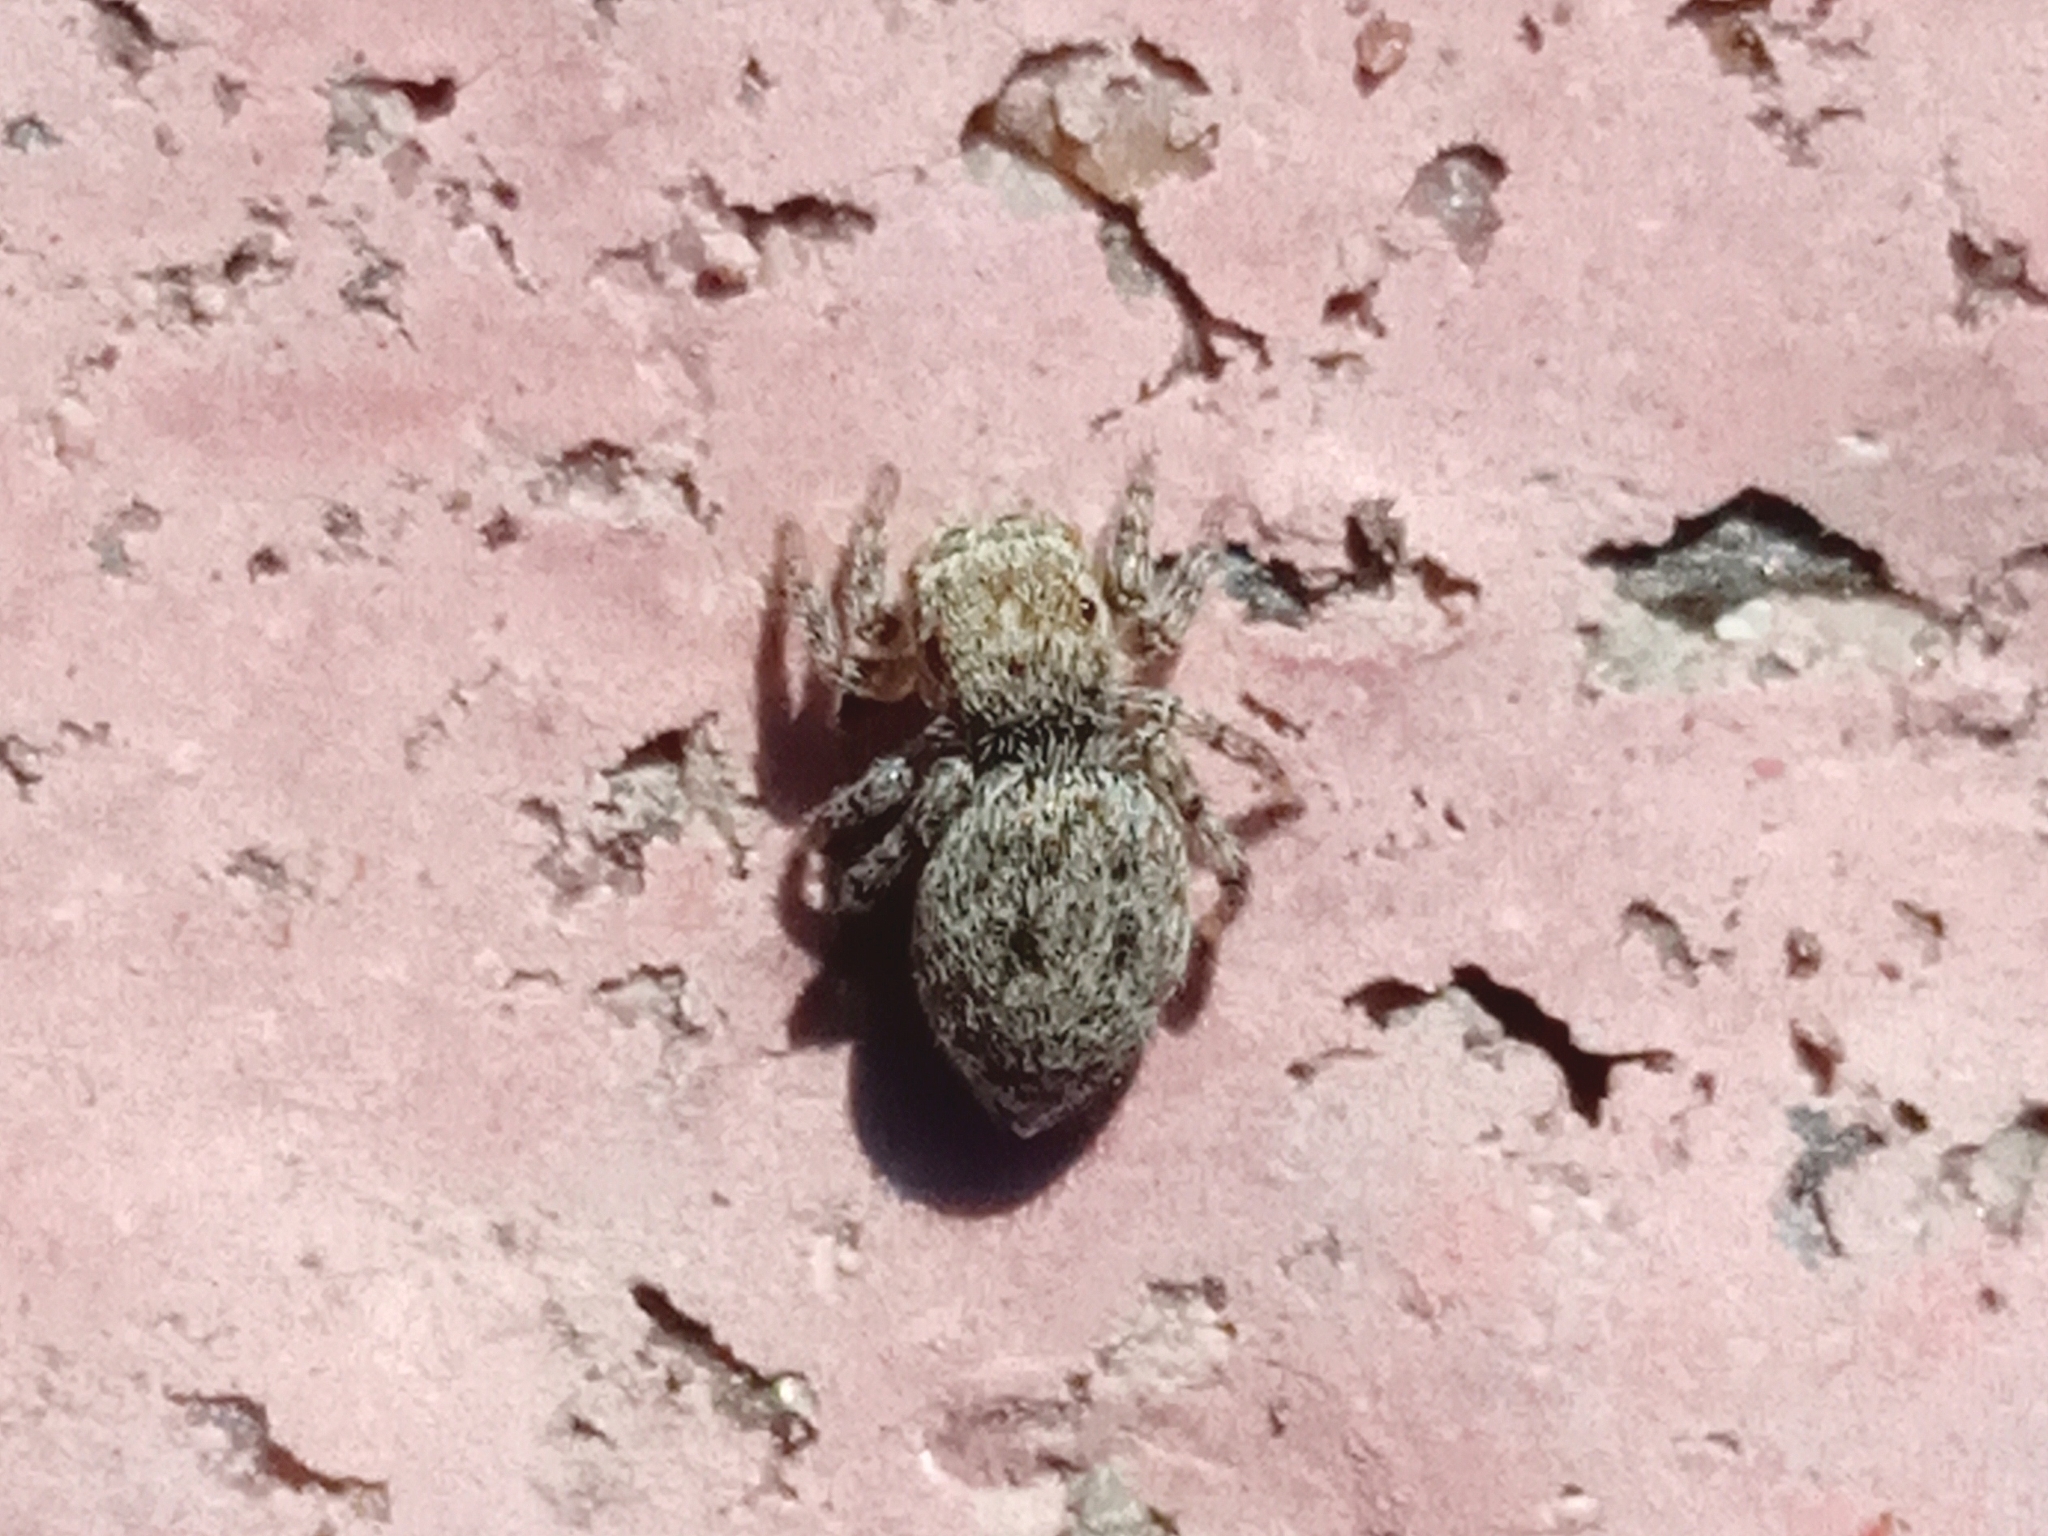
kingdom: Animalia
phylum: Arthropoda
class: Arachnida
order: Araneae
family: Salticidae
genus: Attulus
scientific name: Attulus
